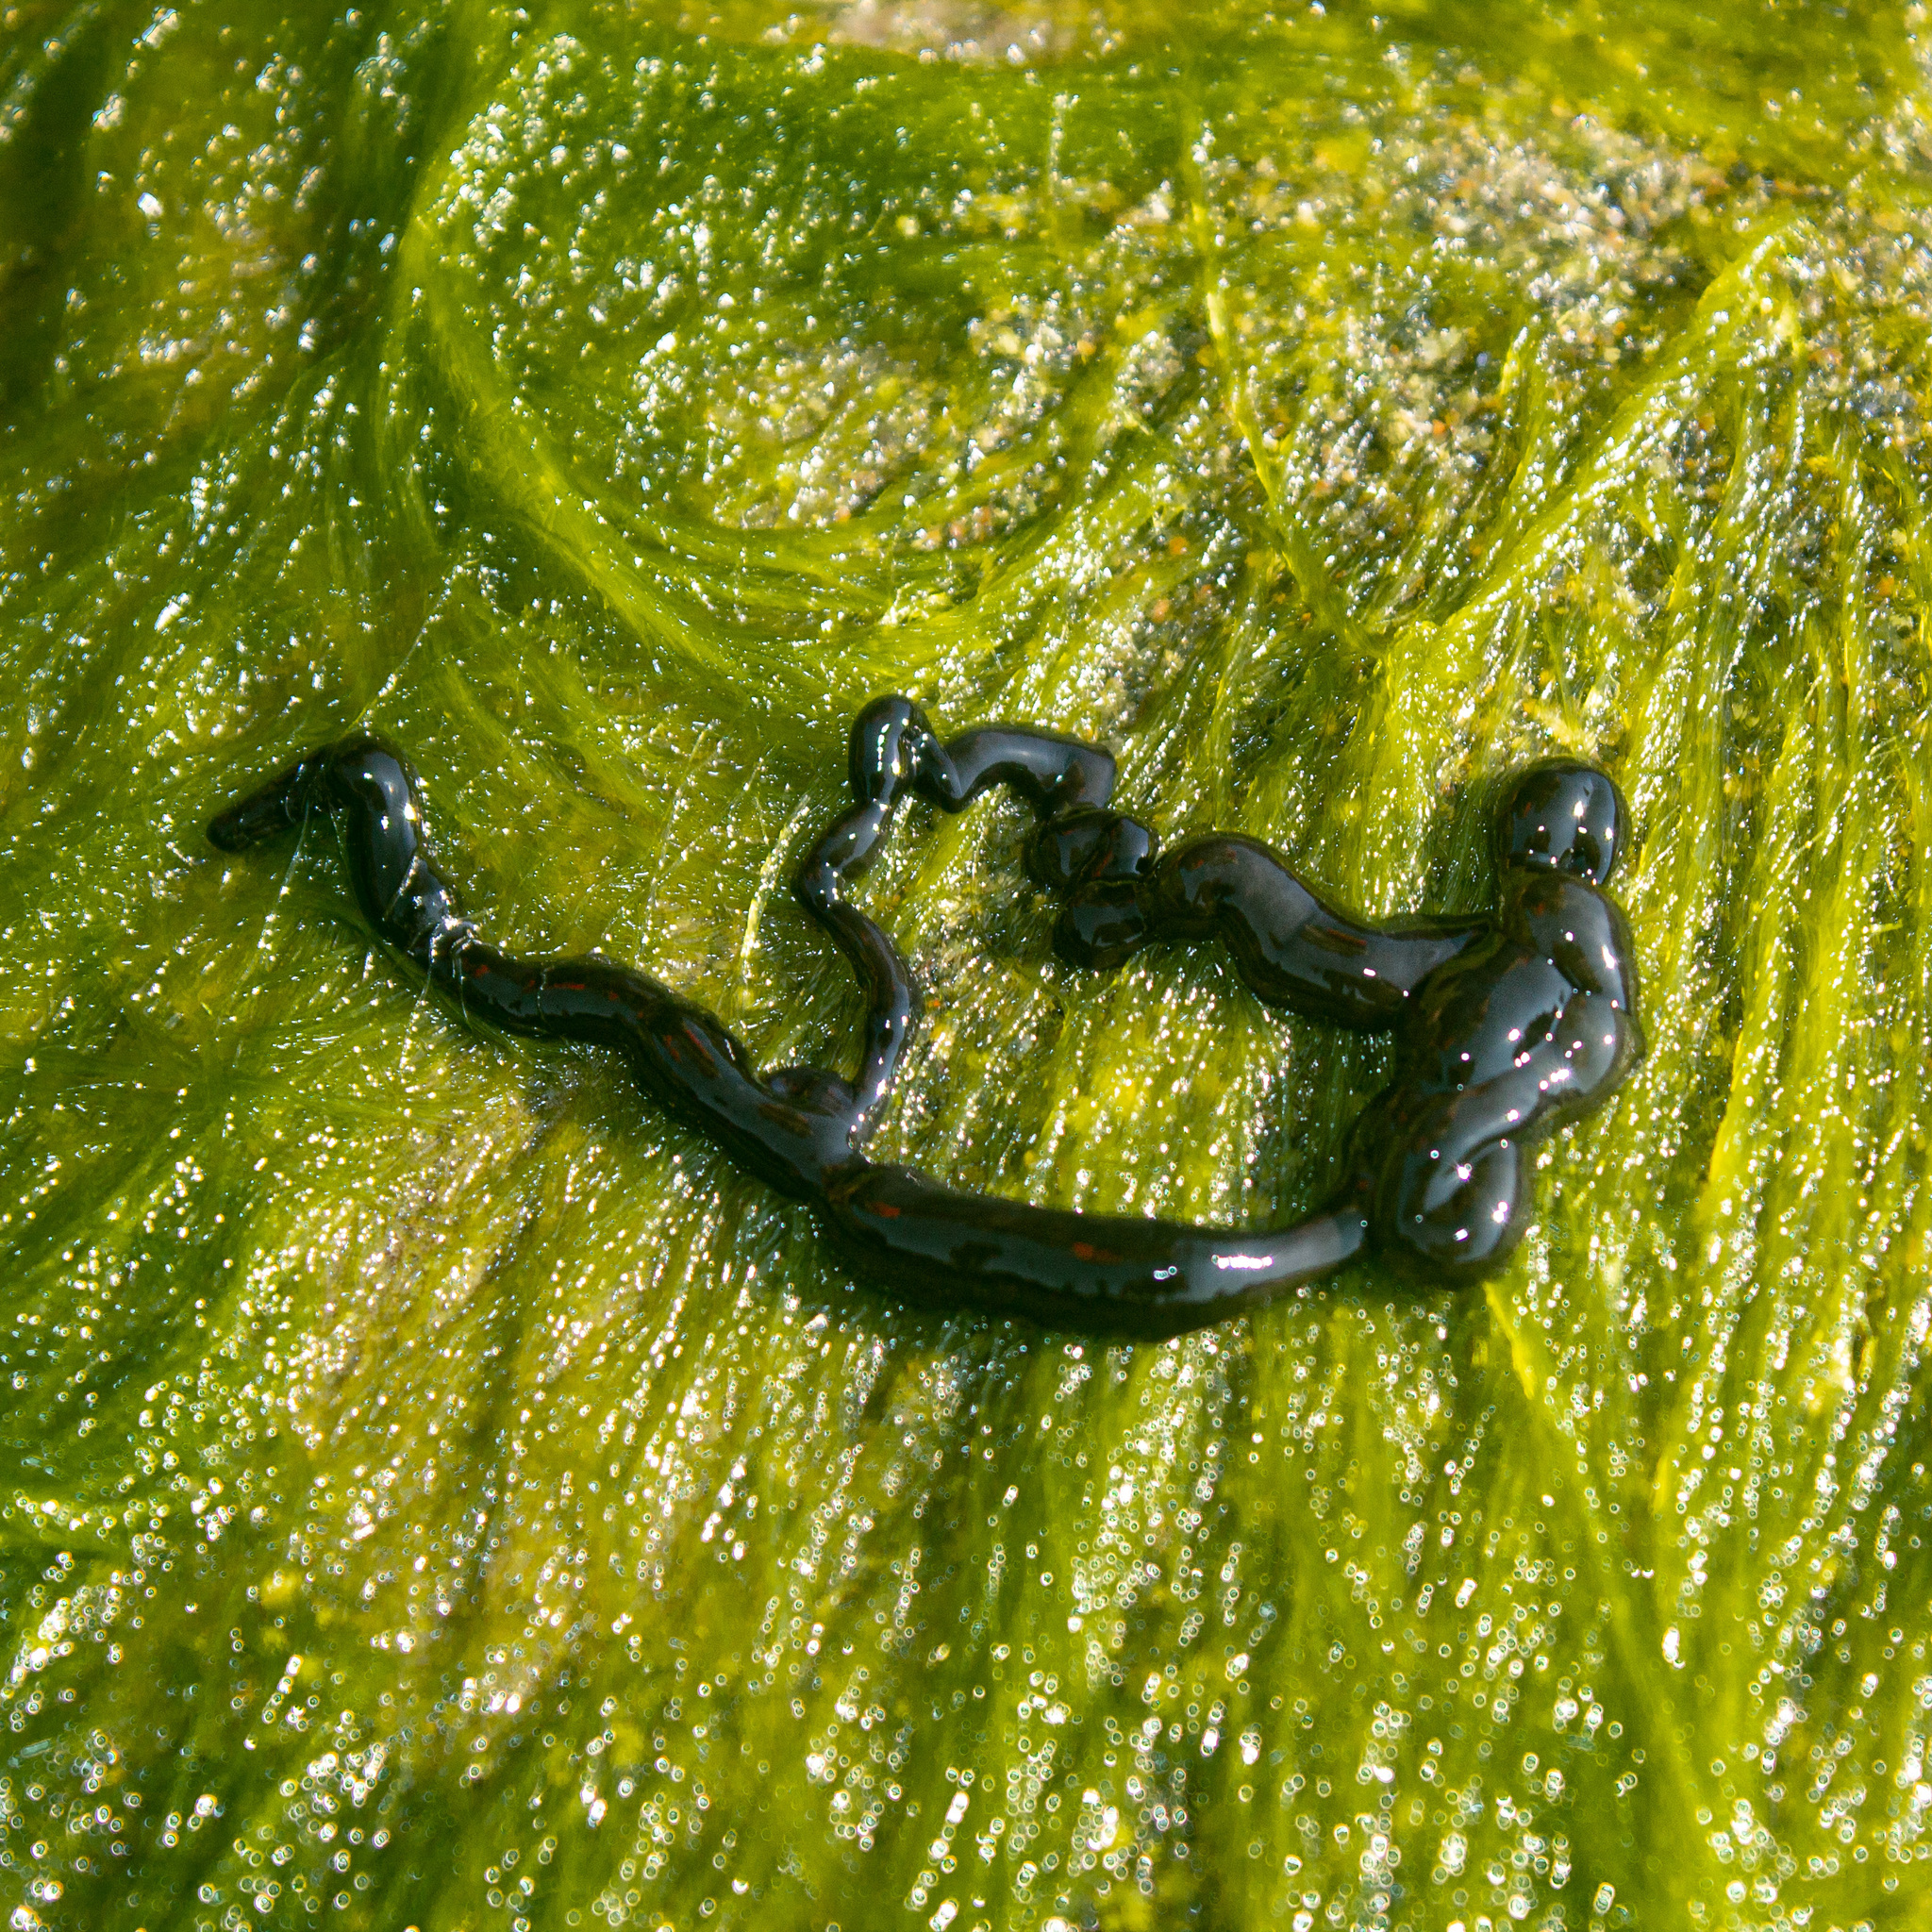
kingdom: Animalia
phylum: Nemertea
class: Pilidiophora
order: Heteronemertea
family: Lineidae
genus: Dushia
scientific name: Dushia wijnhoffae
